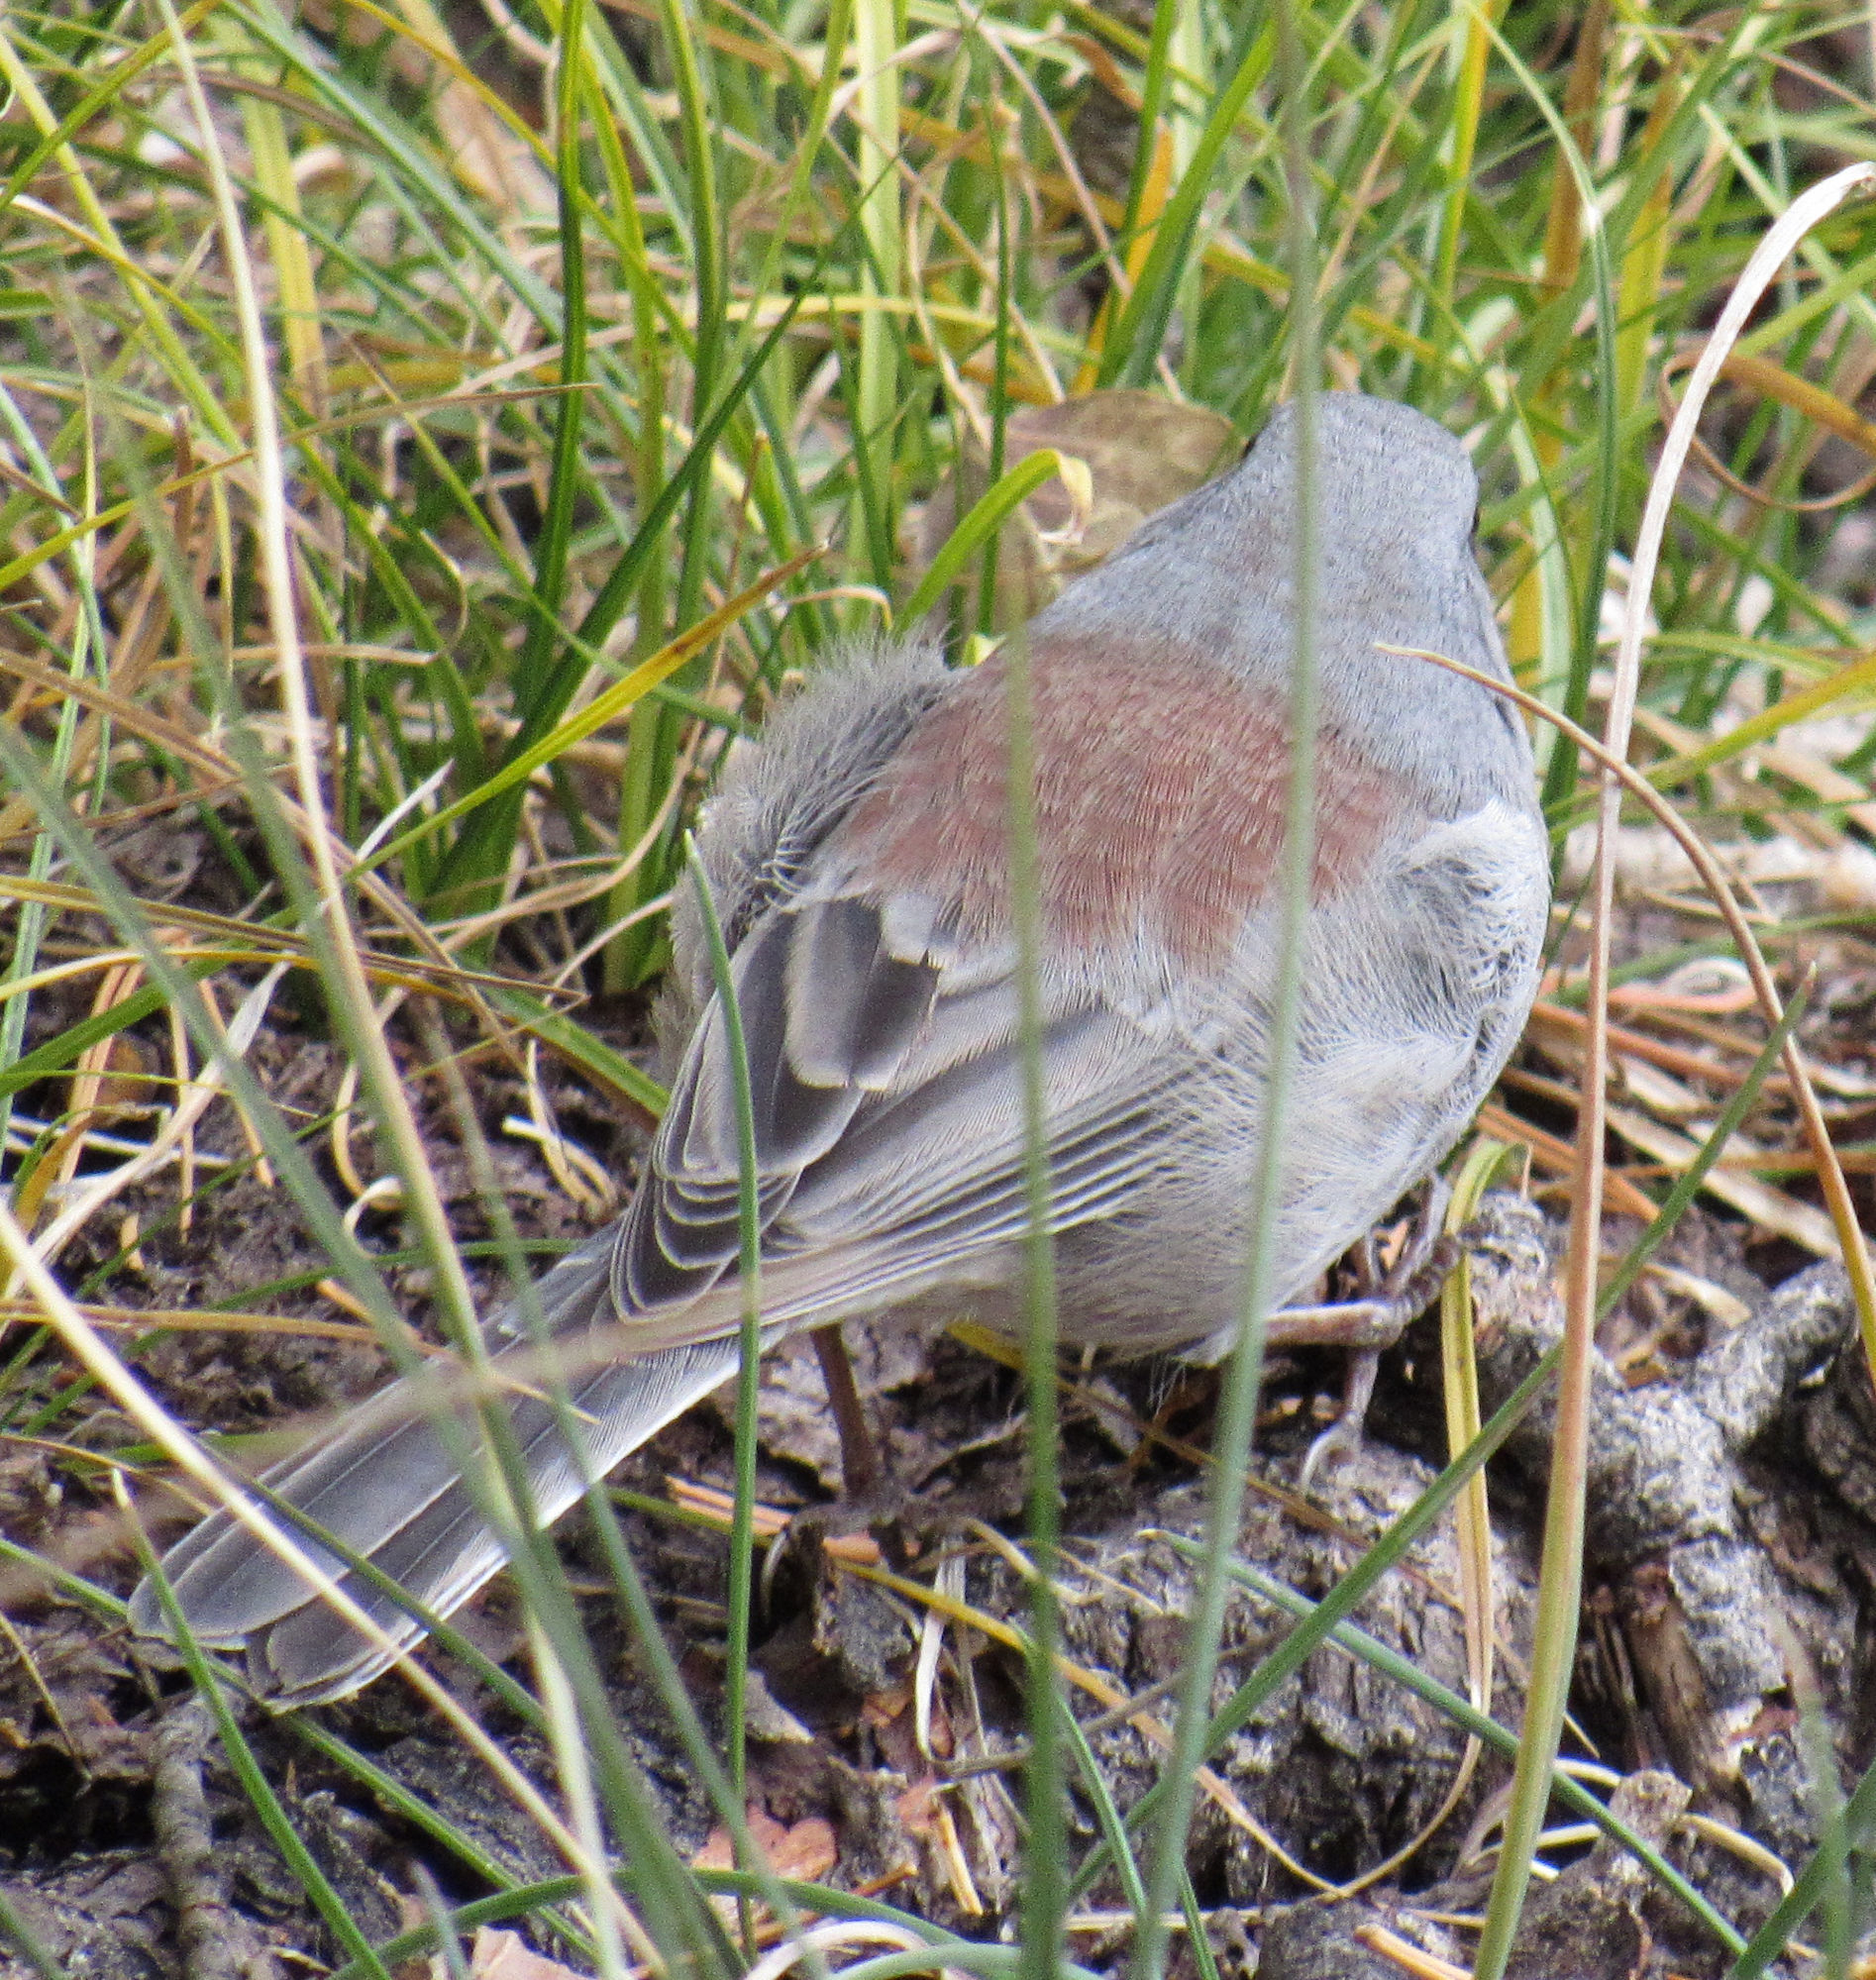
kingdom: Animalia
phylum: Chordata
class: Aves
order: Passeriformes
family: Passerellidae
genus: Junco
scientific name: Junco hyemalis
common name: Dark-eyed junco
